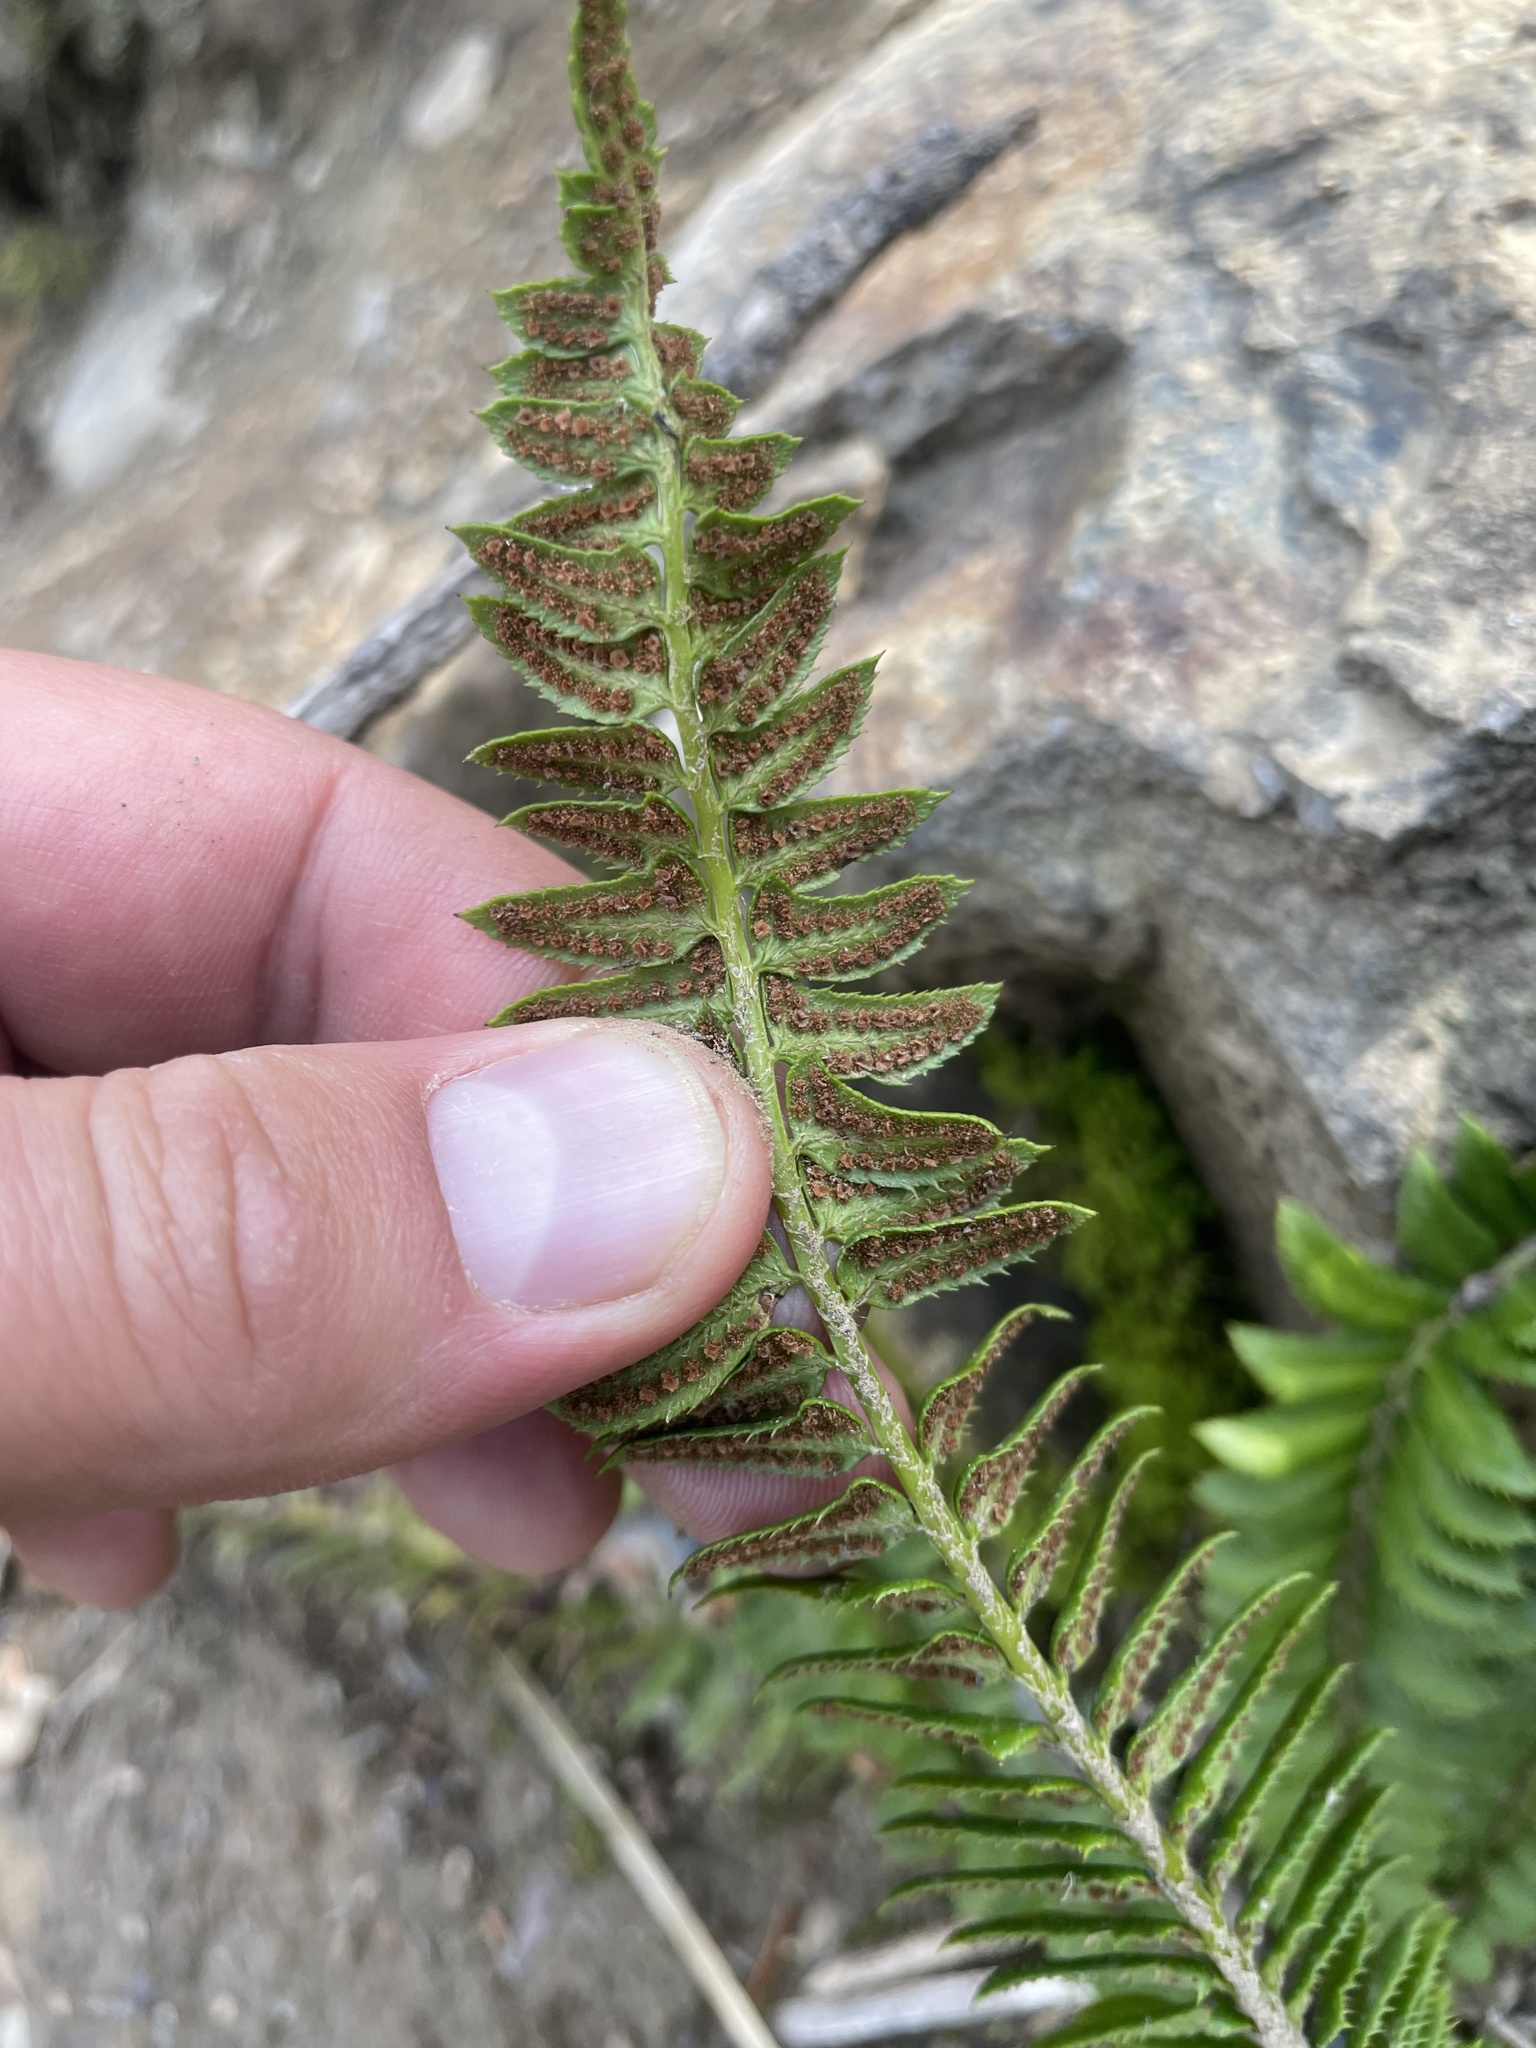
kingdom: Plantae
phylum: Tracheophyta
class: Polypodiopsida
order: Polypodiales
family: Dryopteridaceae
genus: Polystichum
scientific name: Polystichum lonchitis
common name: Holly fern
